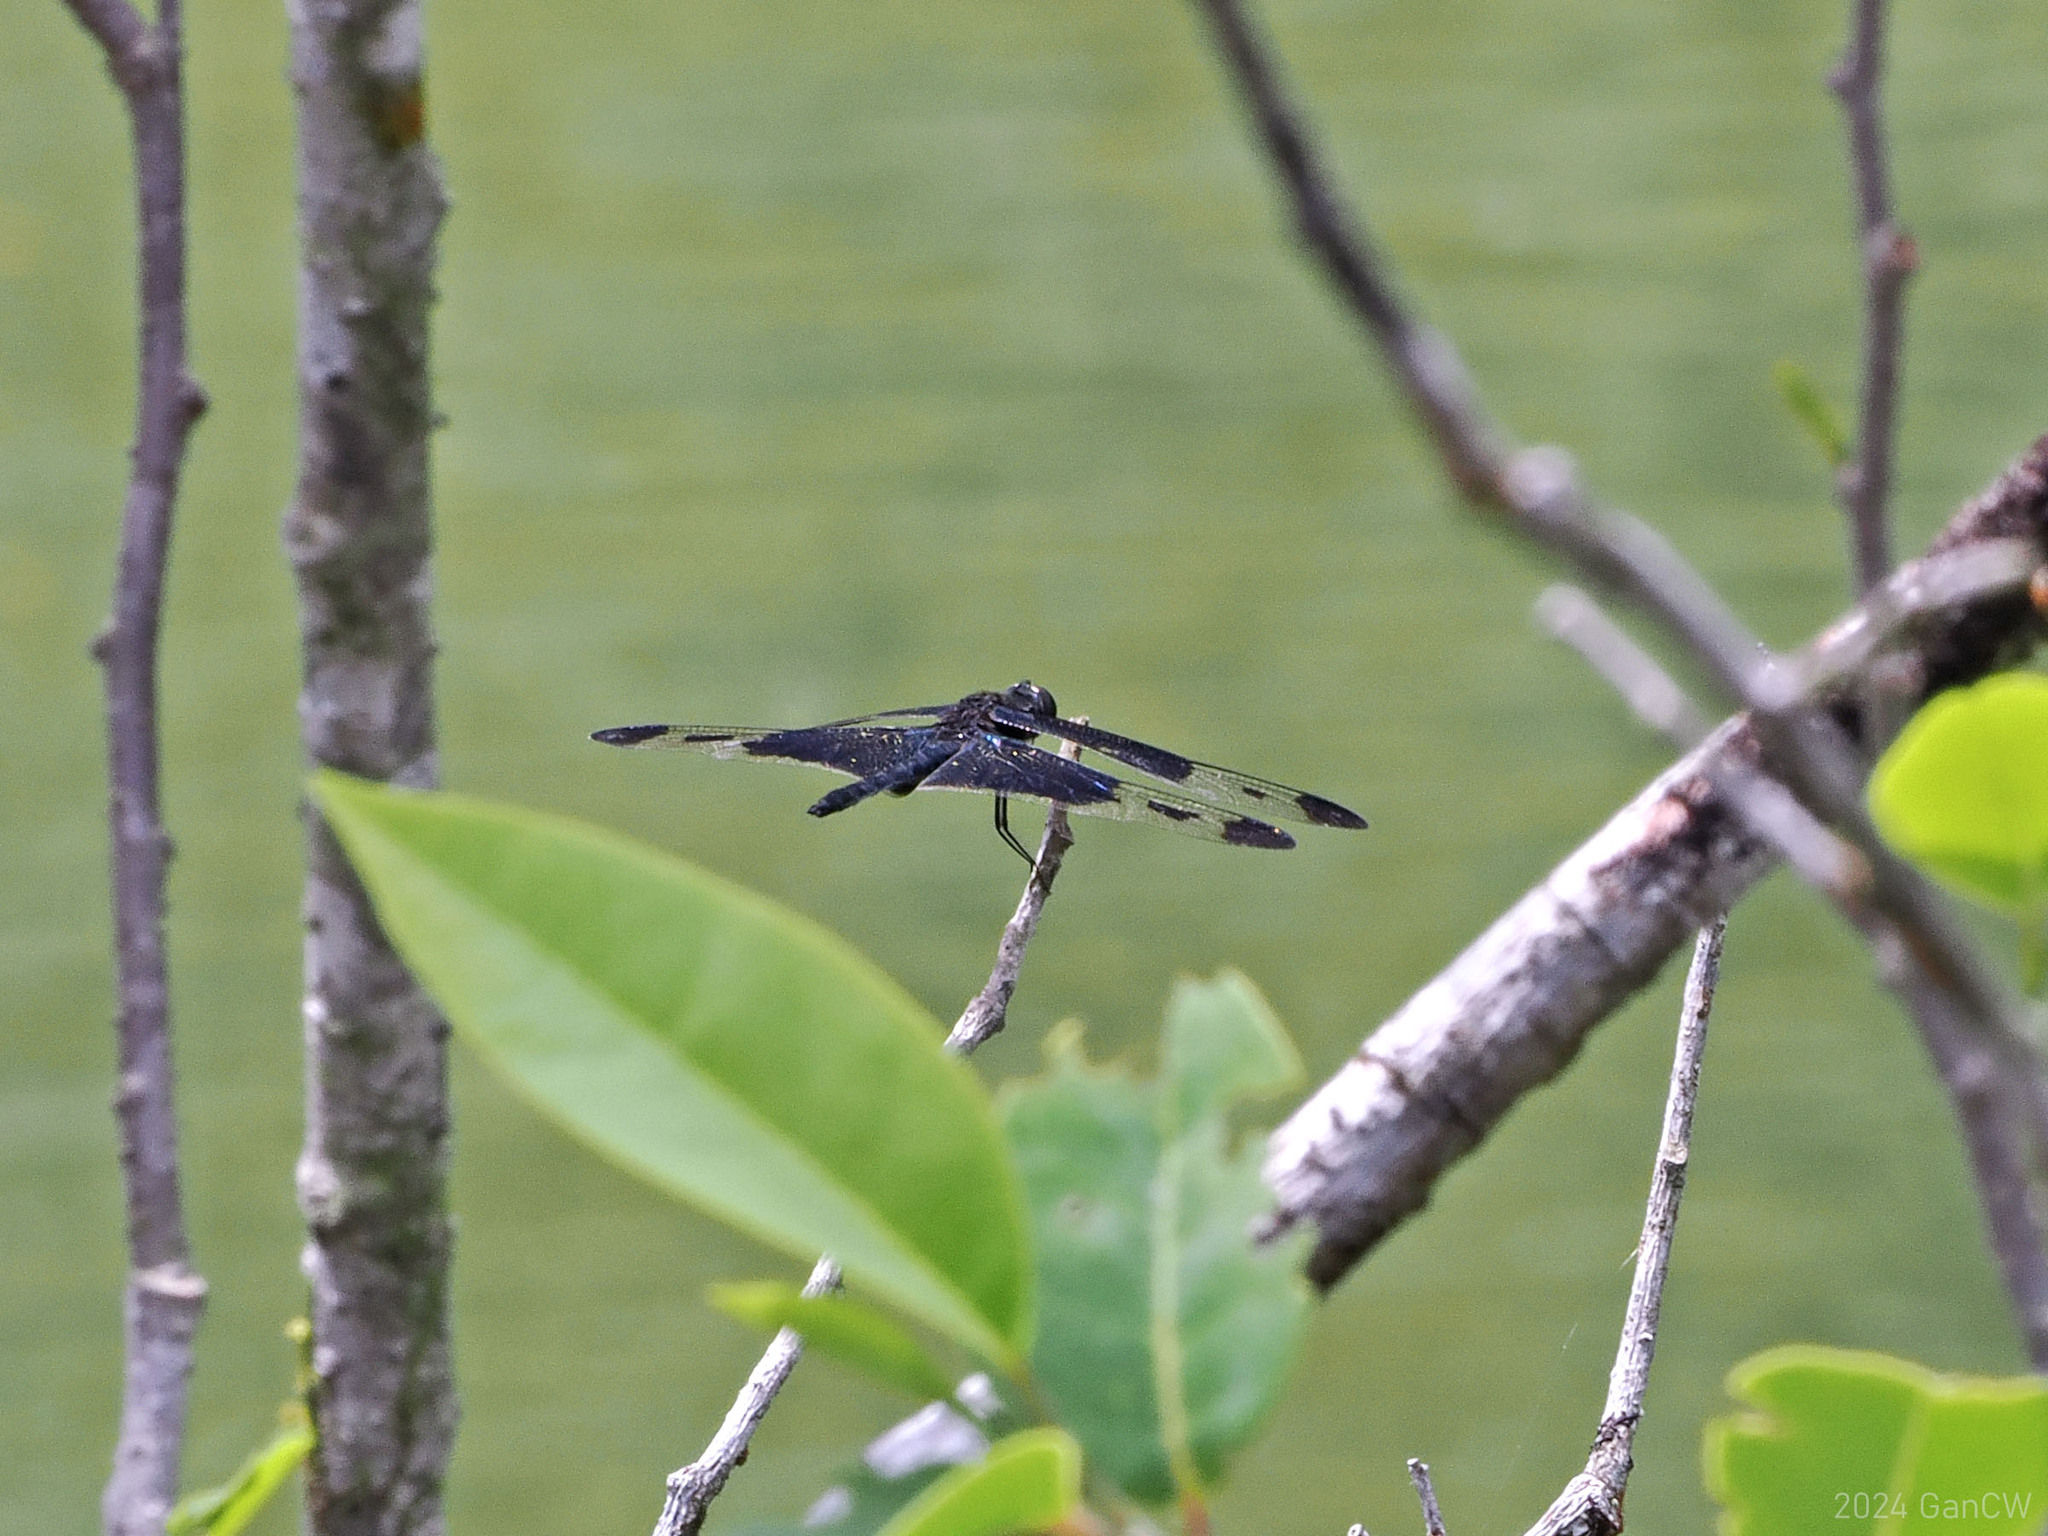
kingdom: Animalia
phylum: Arthropoda
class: Insecta
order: Odonata
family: Libellulidae
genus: Rhyothemis
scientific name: Rhyothemis regia
